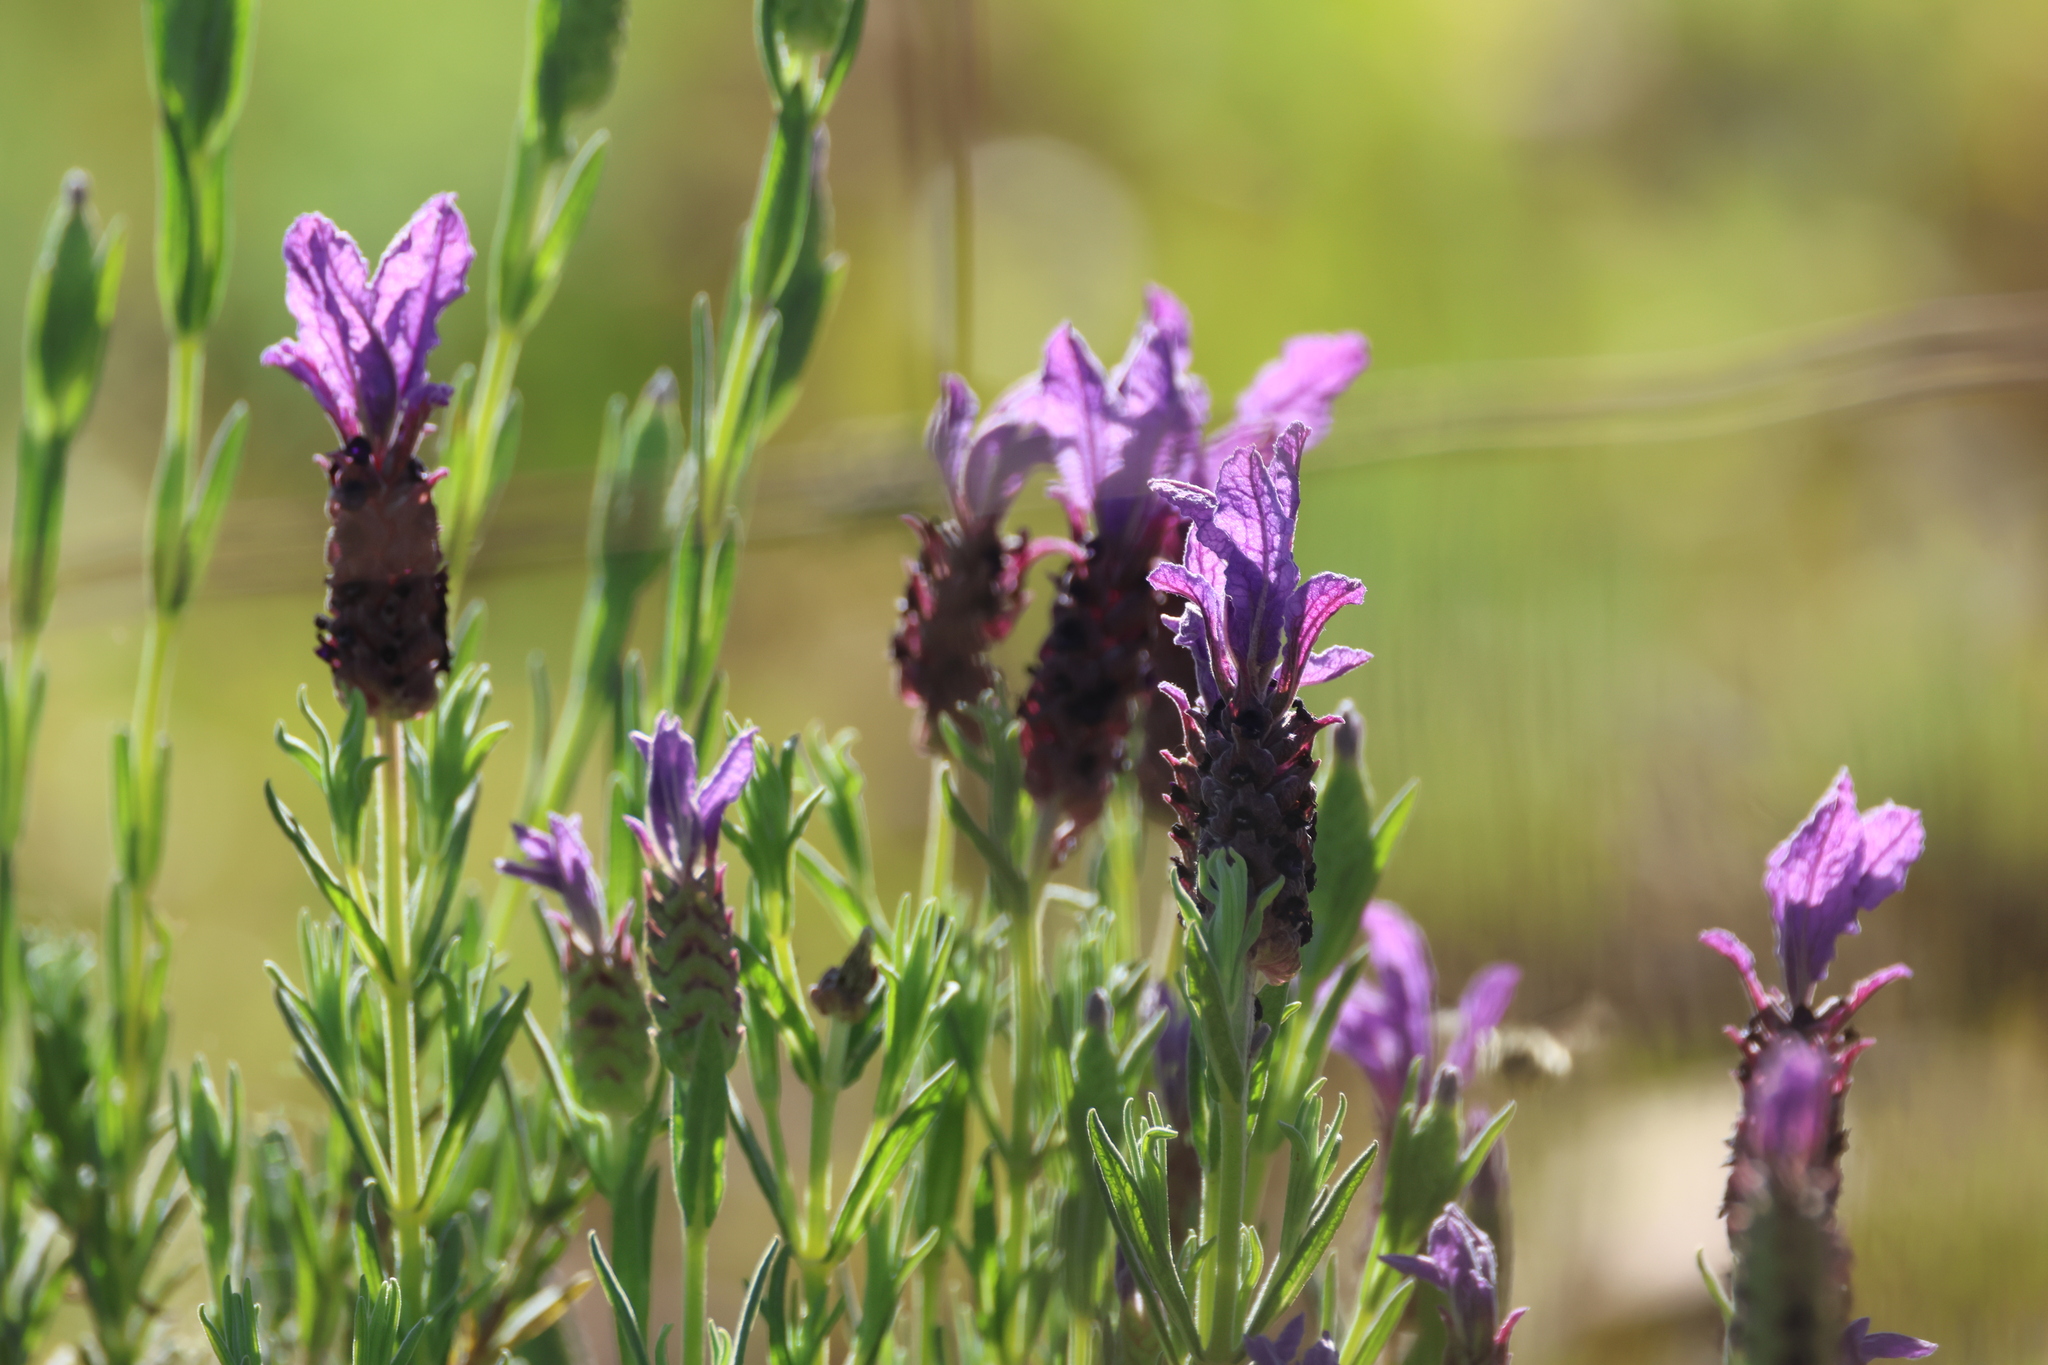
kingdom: Plantae
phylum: Tracheophyta
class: Magnoliopsida
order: Lamiales
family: Lamiaceae
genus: Lavandula
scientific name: Lavandula stoechas
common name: French lavender
